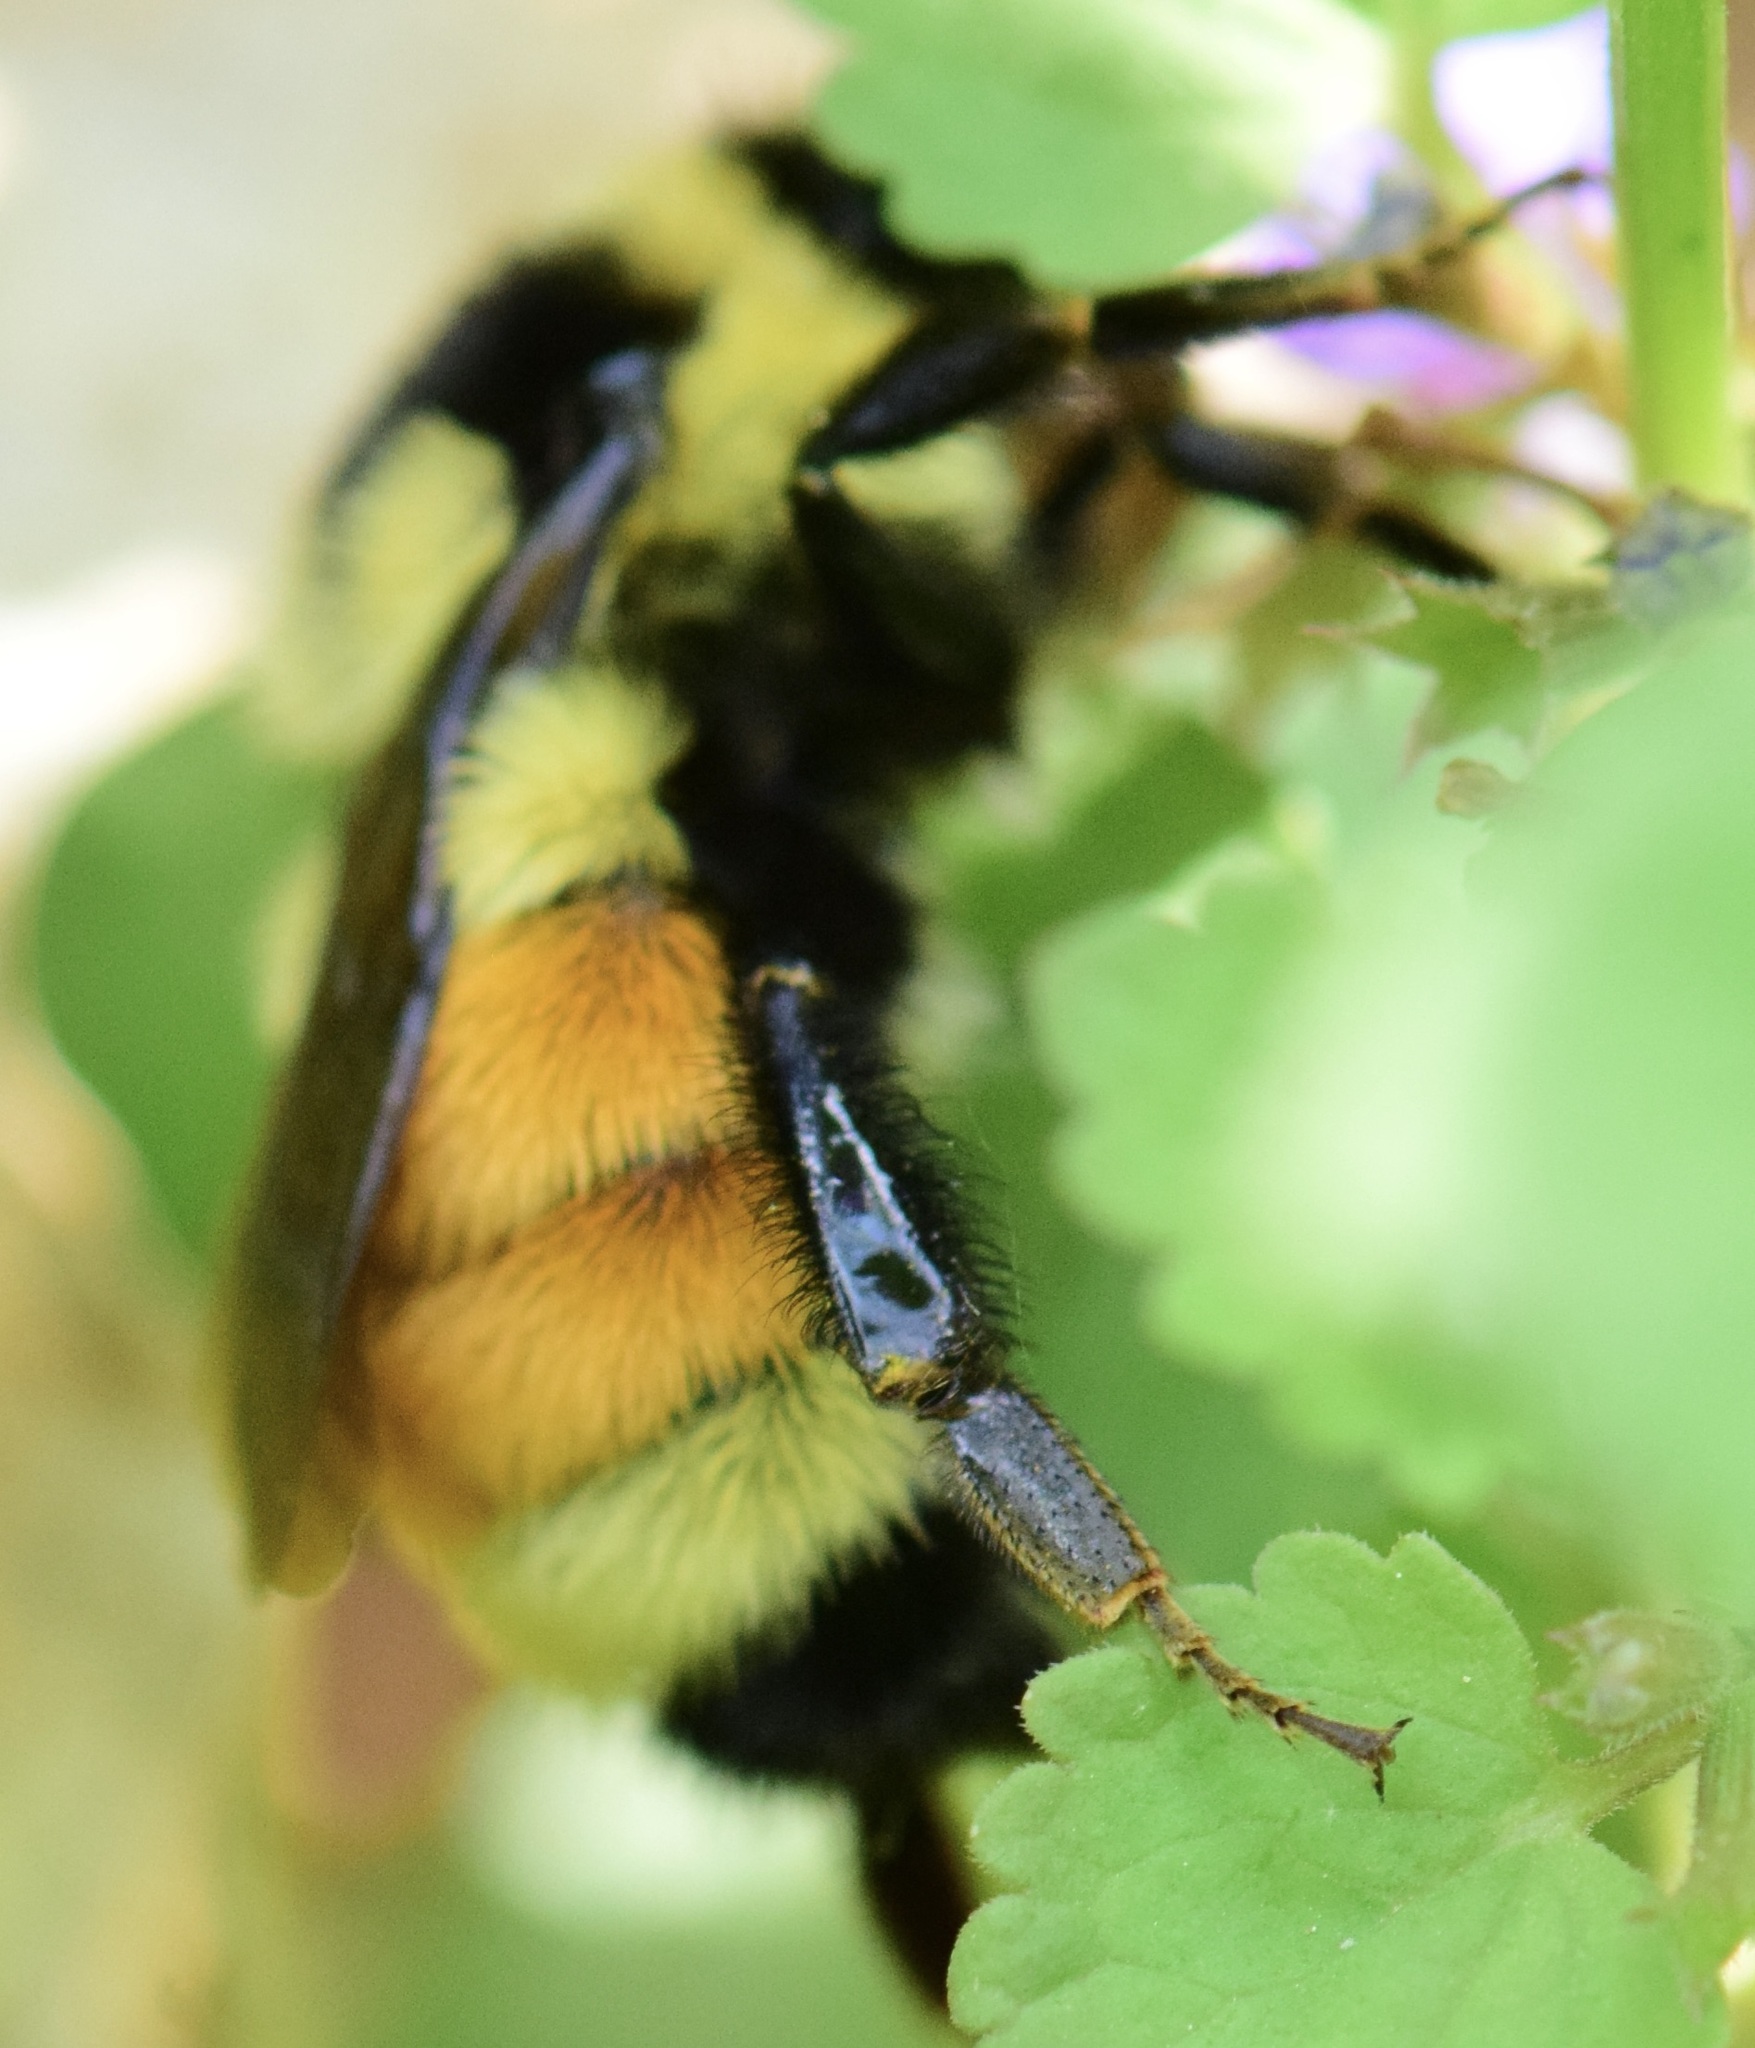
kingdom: Animalia
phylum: Arthropoda
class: Insecta
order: Hymenoptera
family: Apidae
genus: Bombus
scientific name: Bombus ternarius
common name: Tri-colored bumble bee
